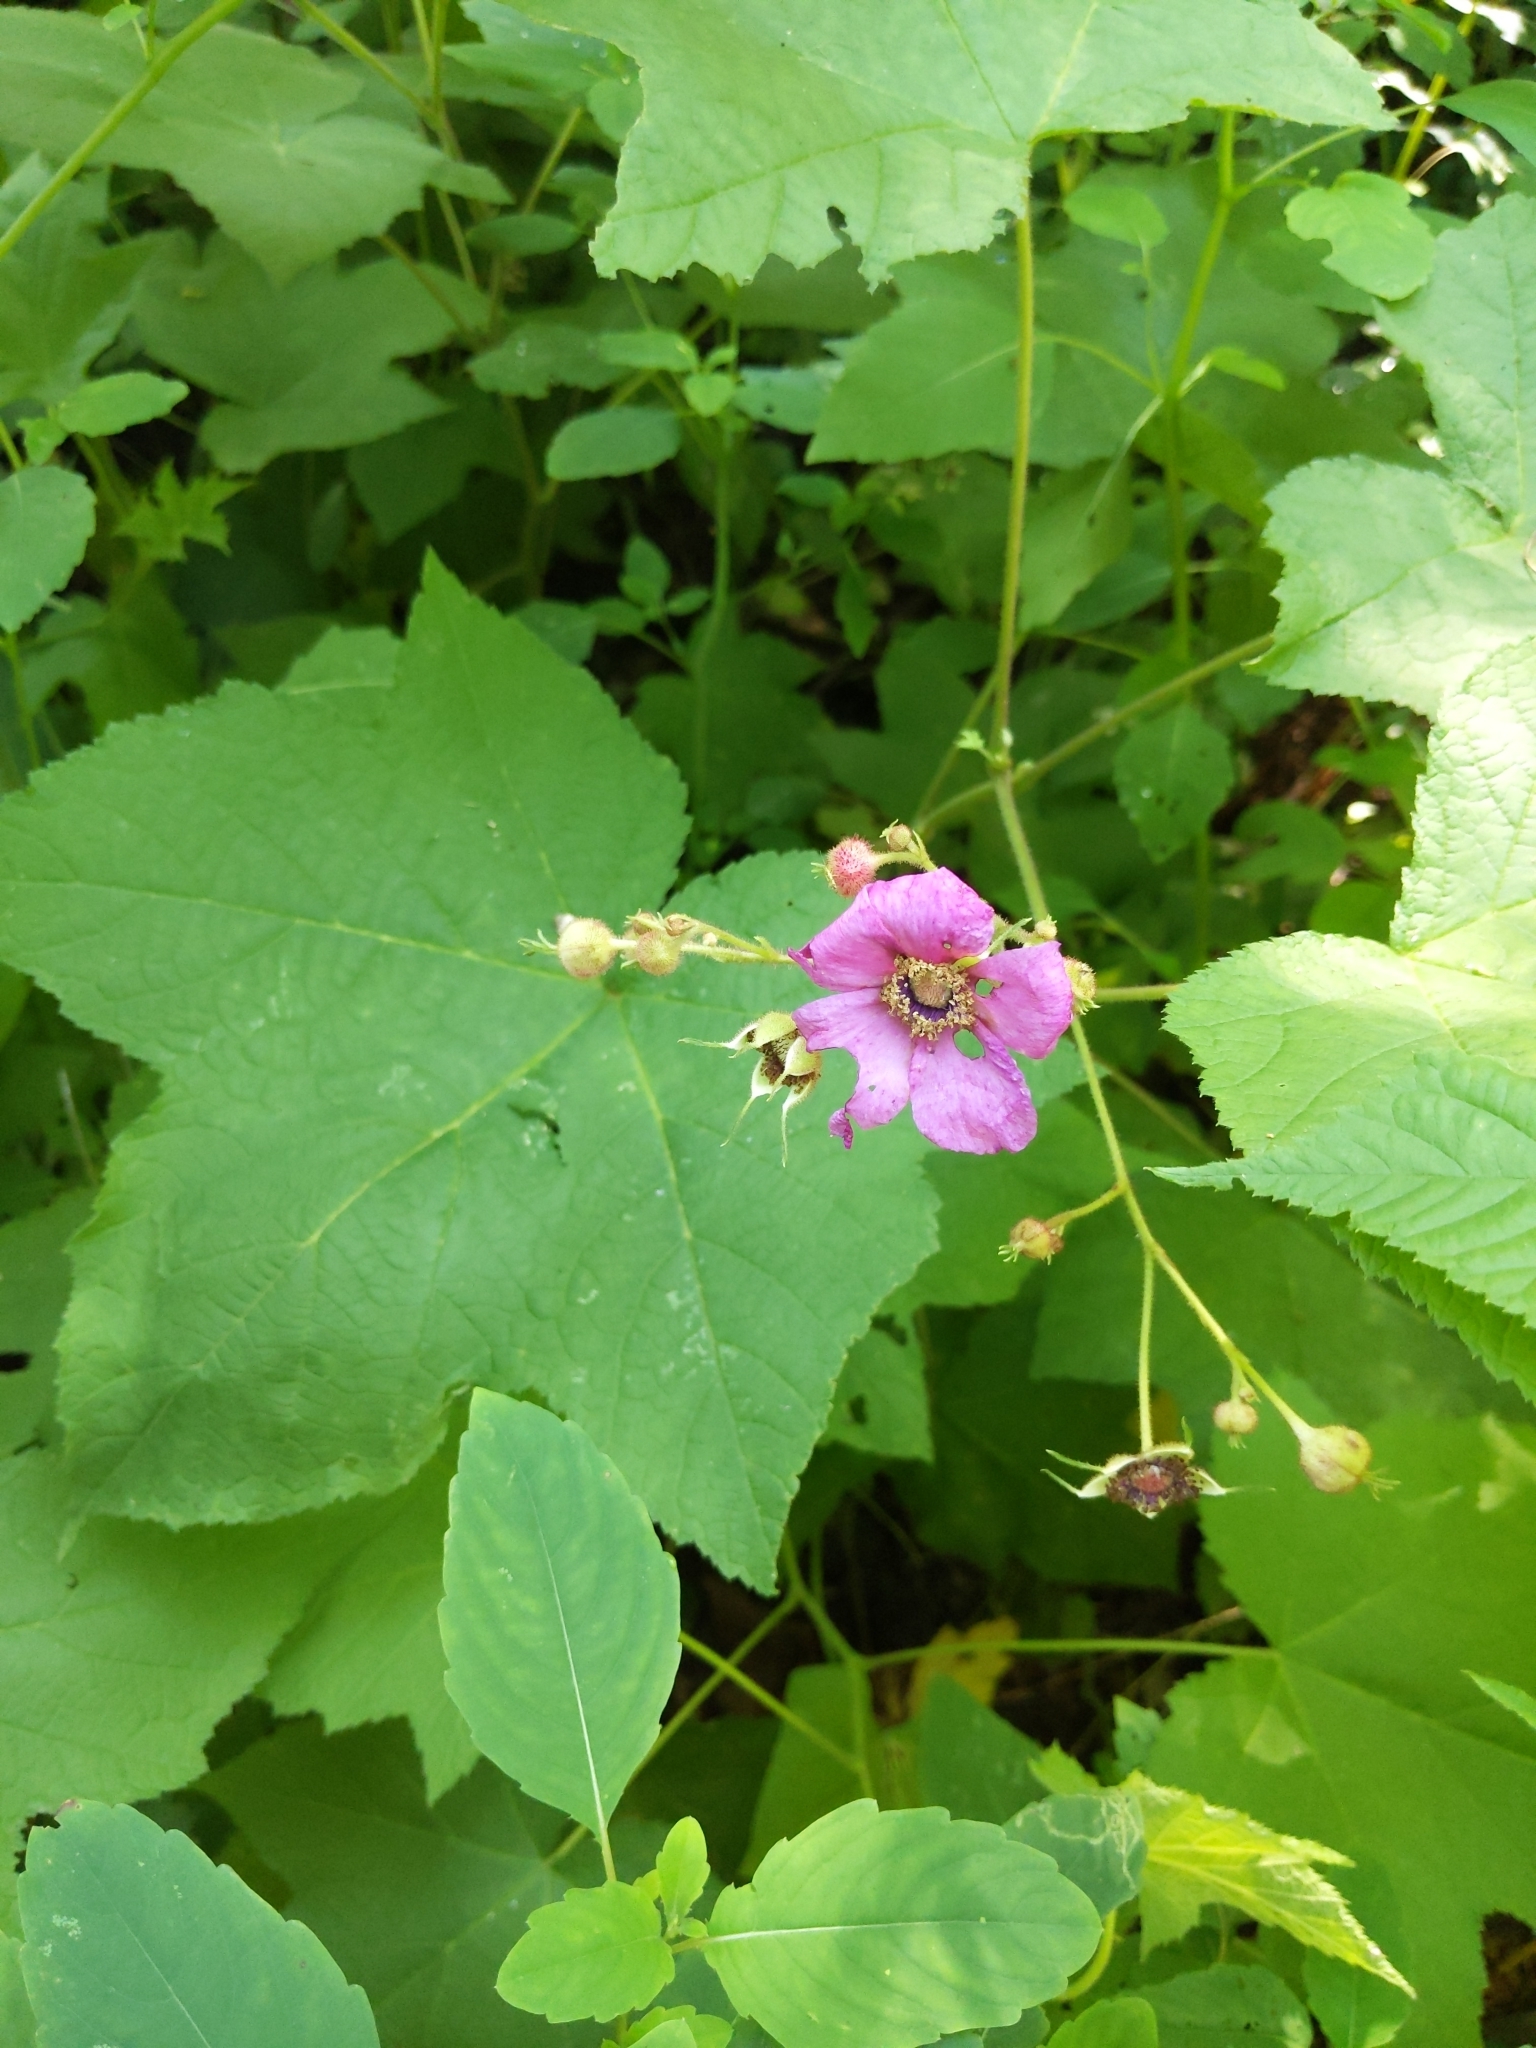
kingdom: Plantae
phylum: Tracheophyta
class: Magnoliopsida
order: Rosales
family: Rosaceae
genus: Rubus
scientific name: Rubus odoratus
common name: Purple-flowered raspberry
